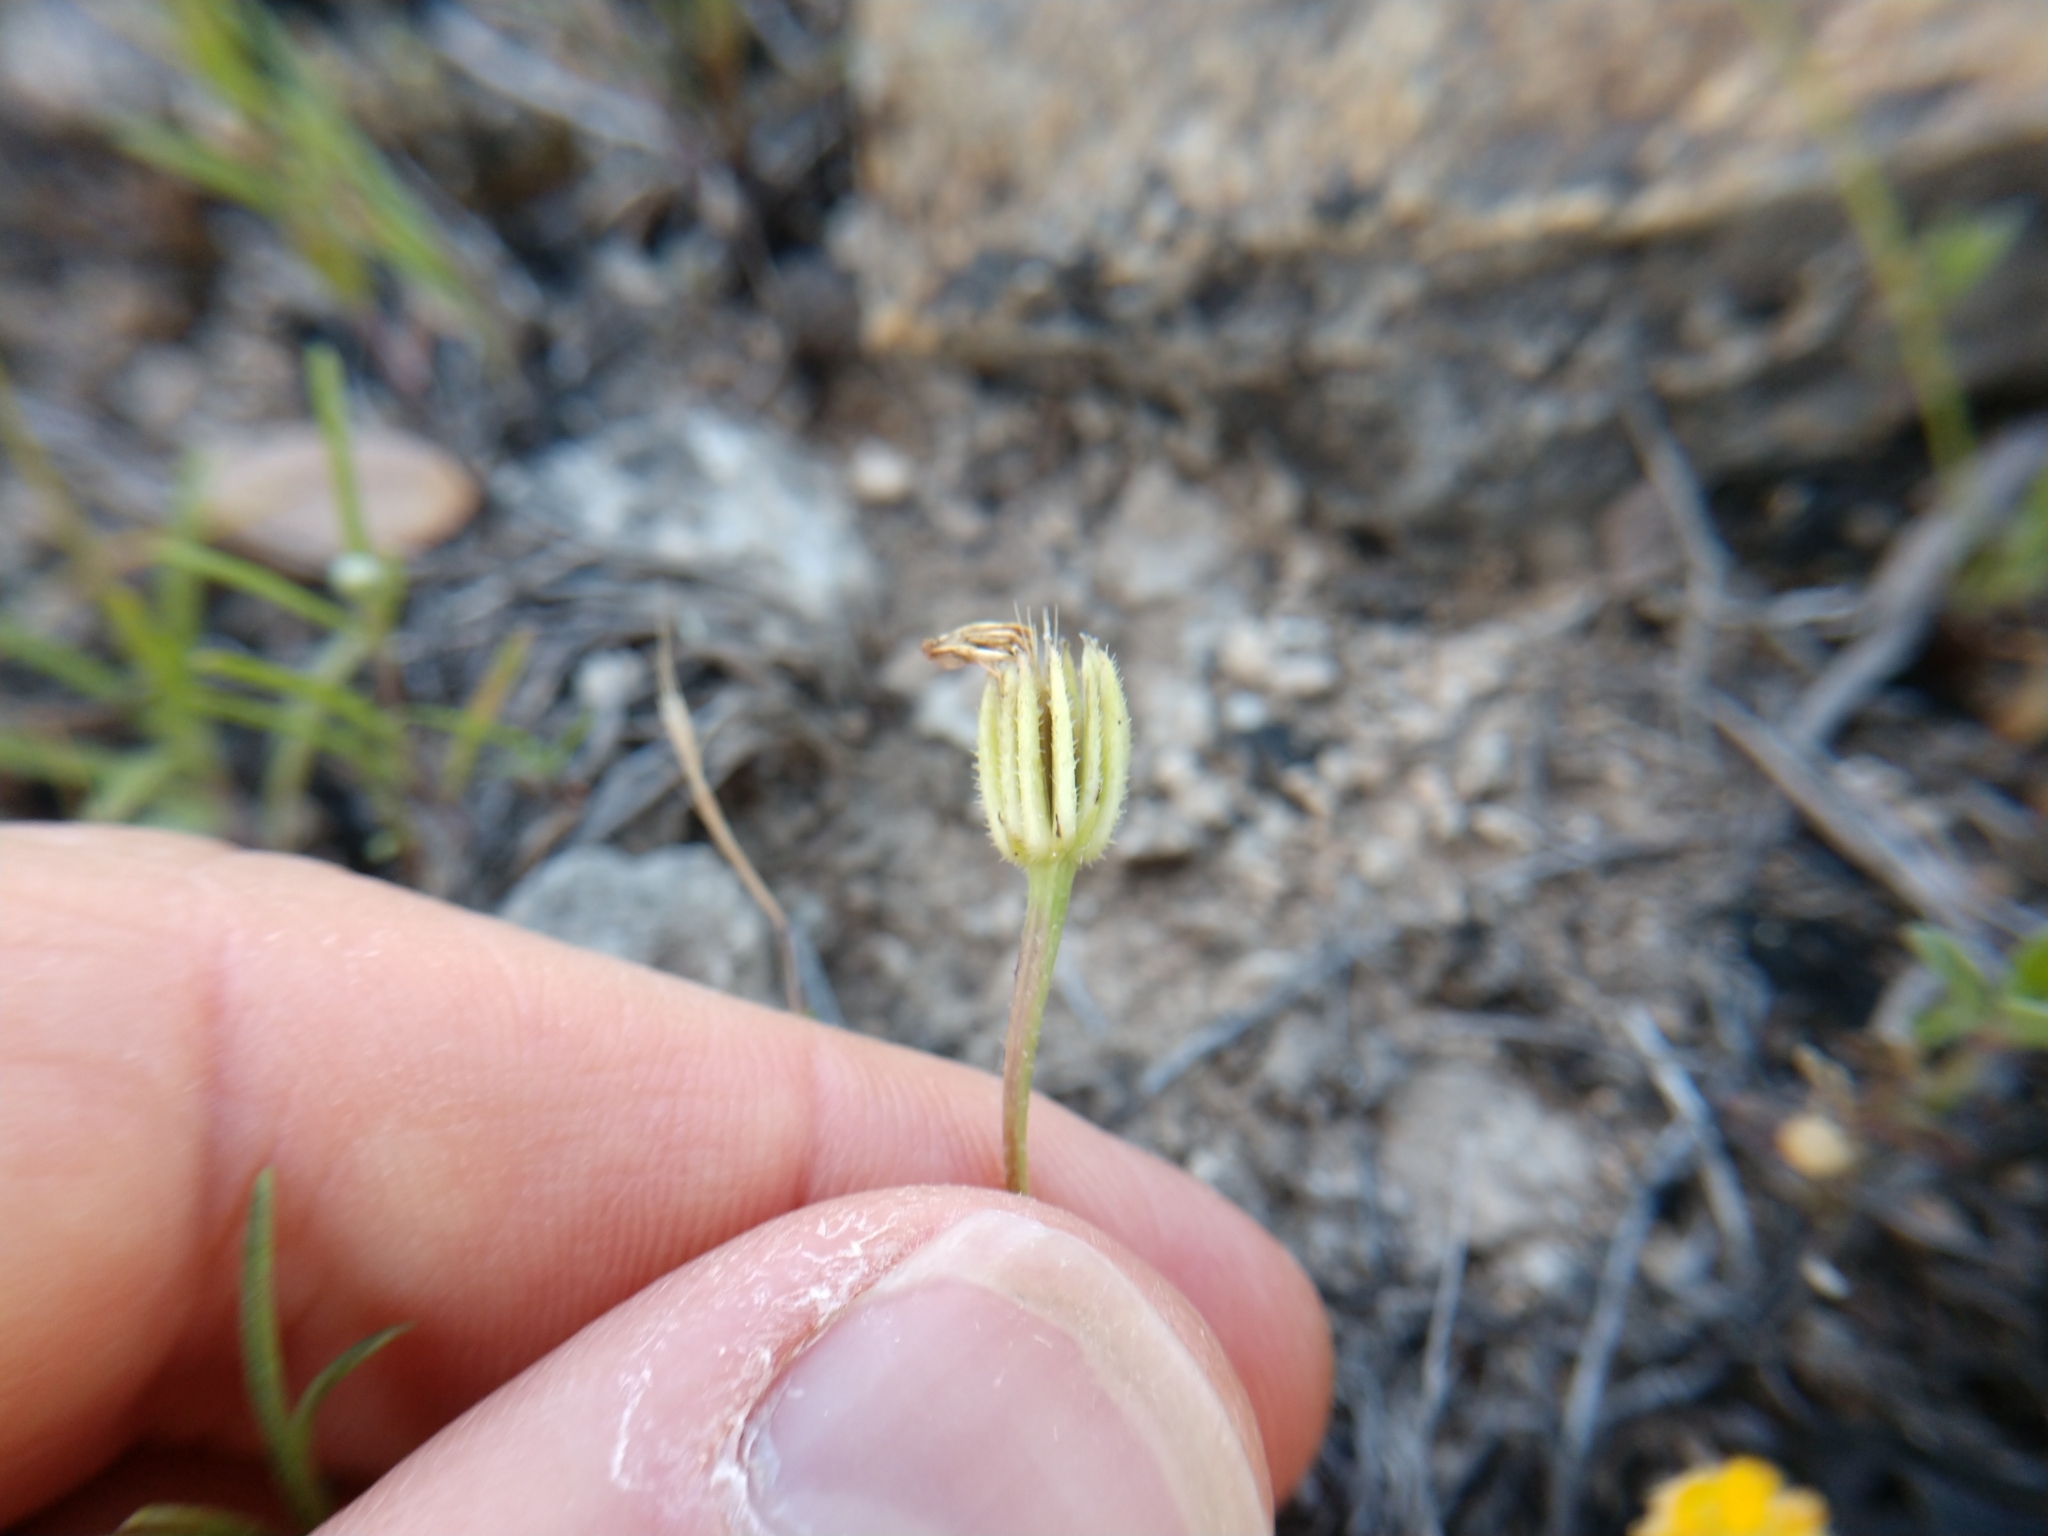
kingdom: Plantae
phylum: Tracheophyta
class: Magnoliopsida
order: Asterales
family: Asteraceae
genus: Hedypnois
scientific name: Hedypnois rhagadioloides
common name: Cretan weed
